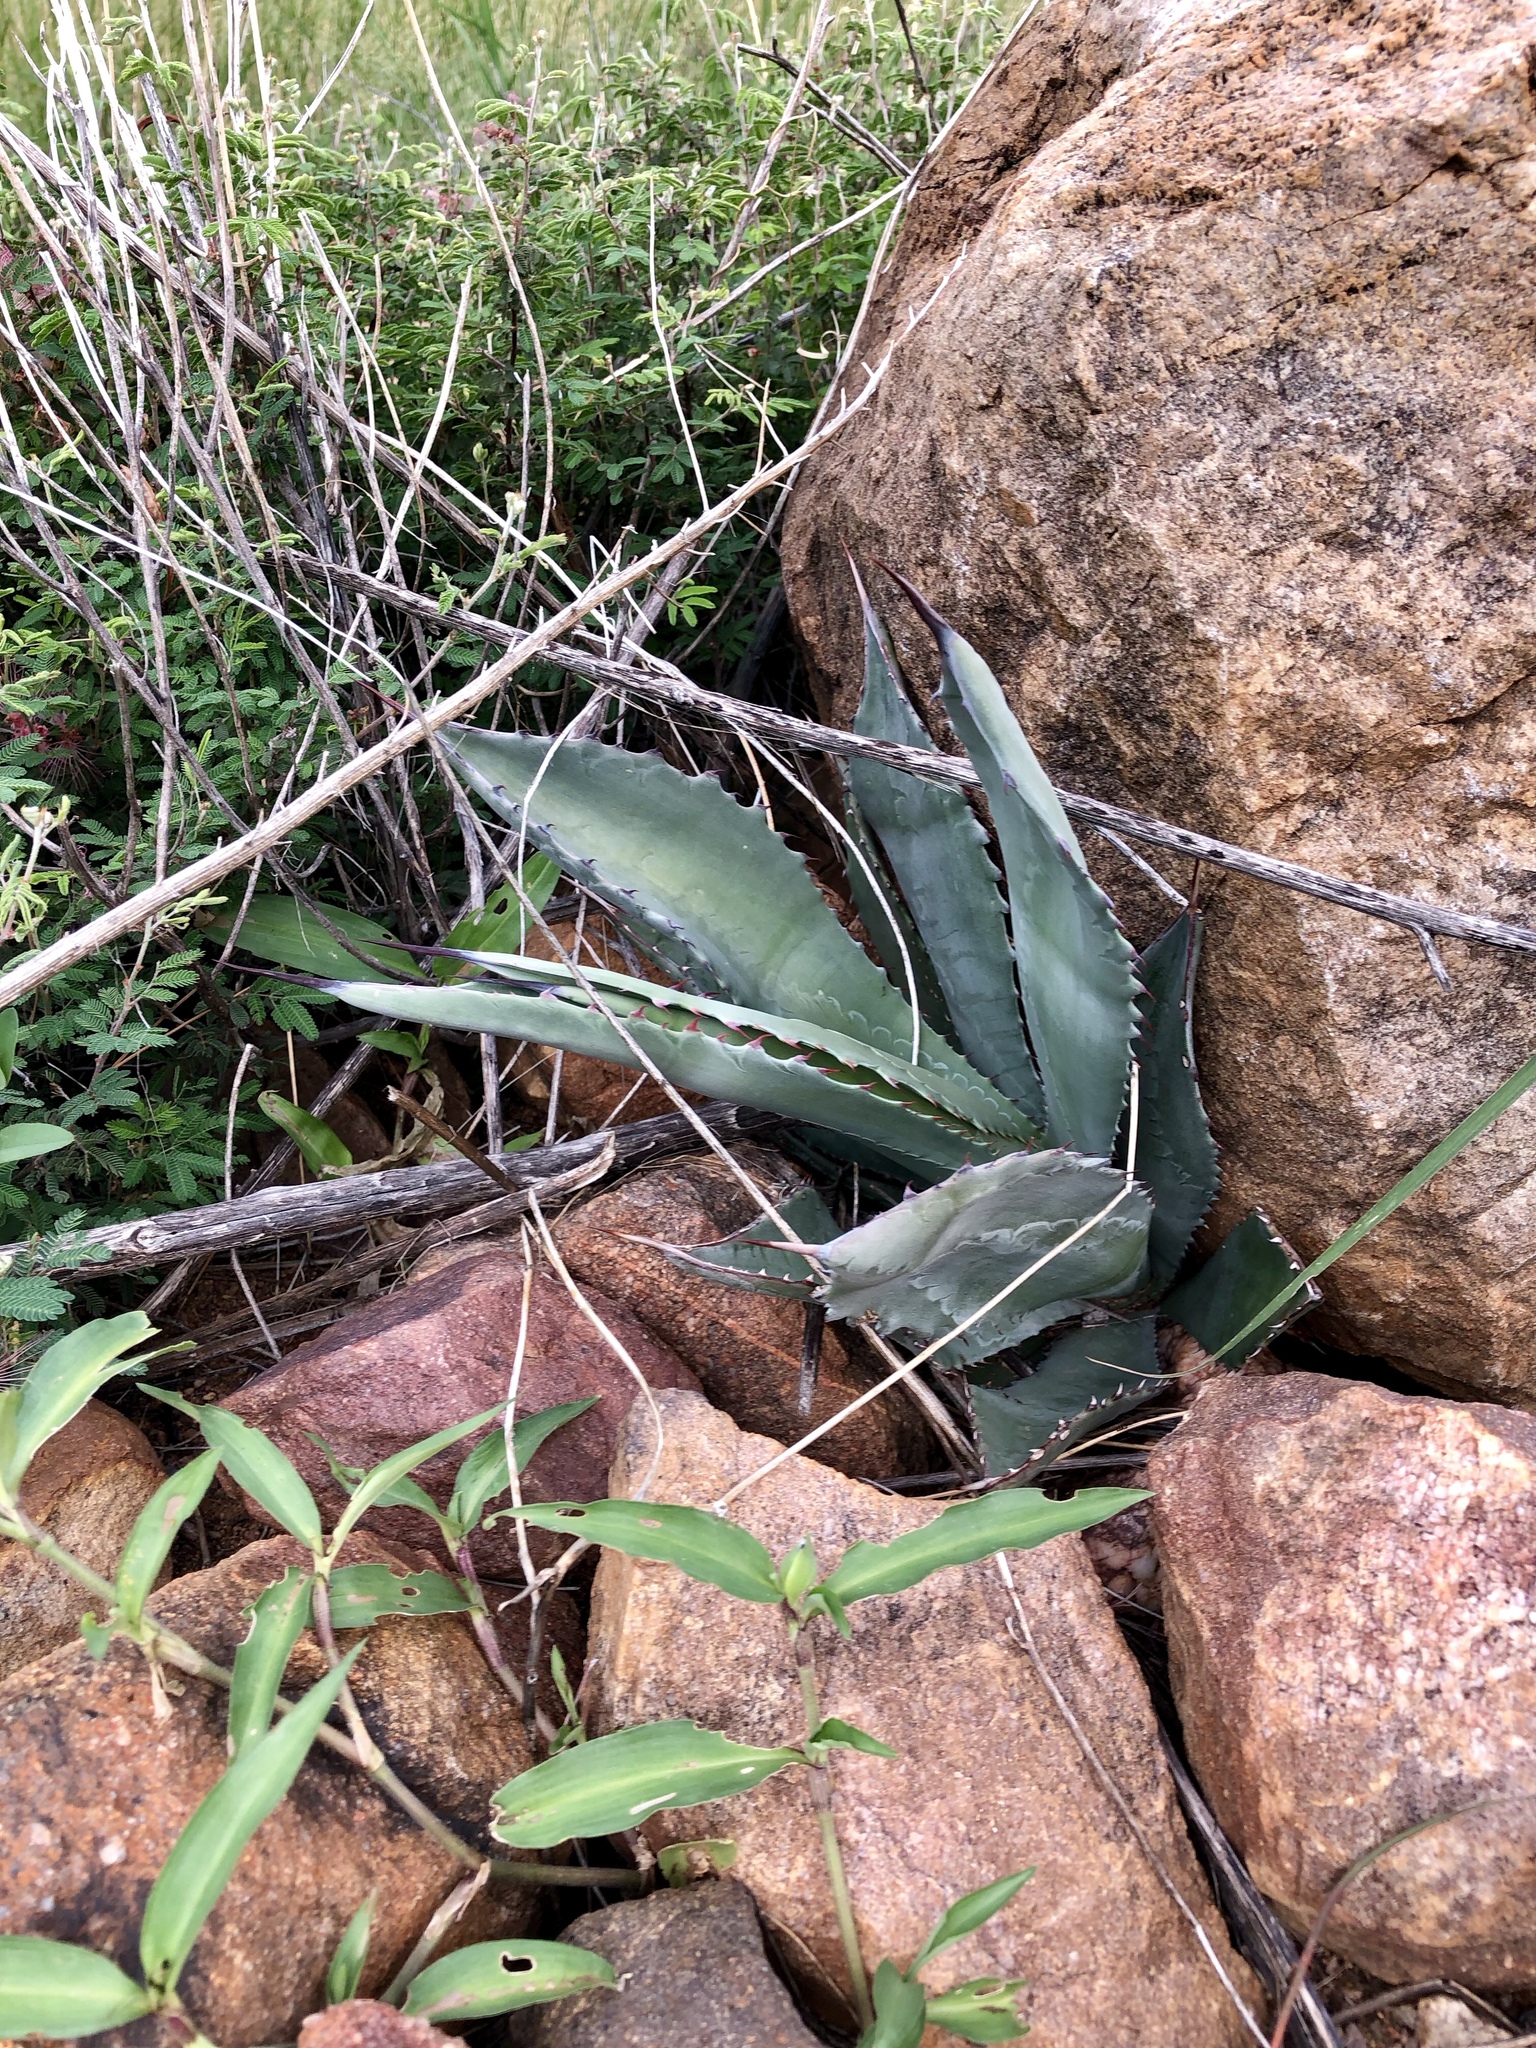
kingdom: Plantae
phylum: Tracheophyta
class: Liliopsida
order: Asparagales
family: Asparagaceae
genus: Agave
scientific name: Agave shrevei
